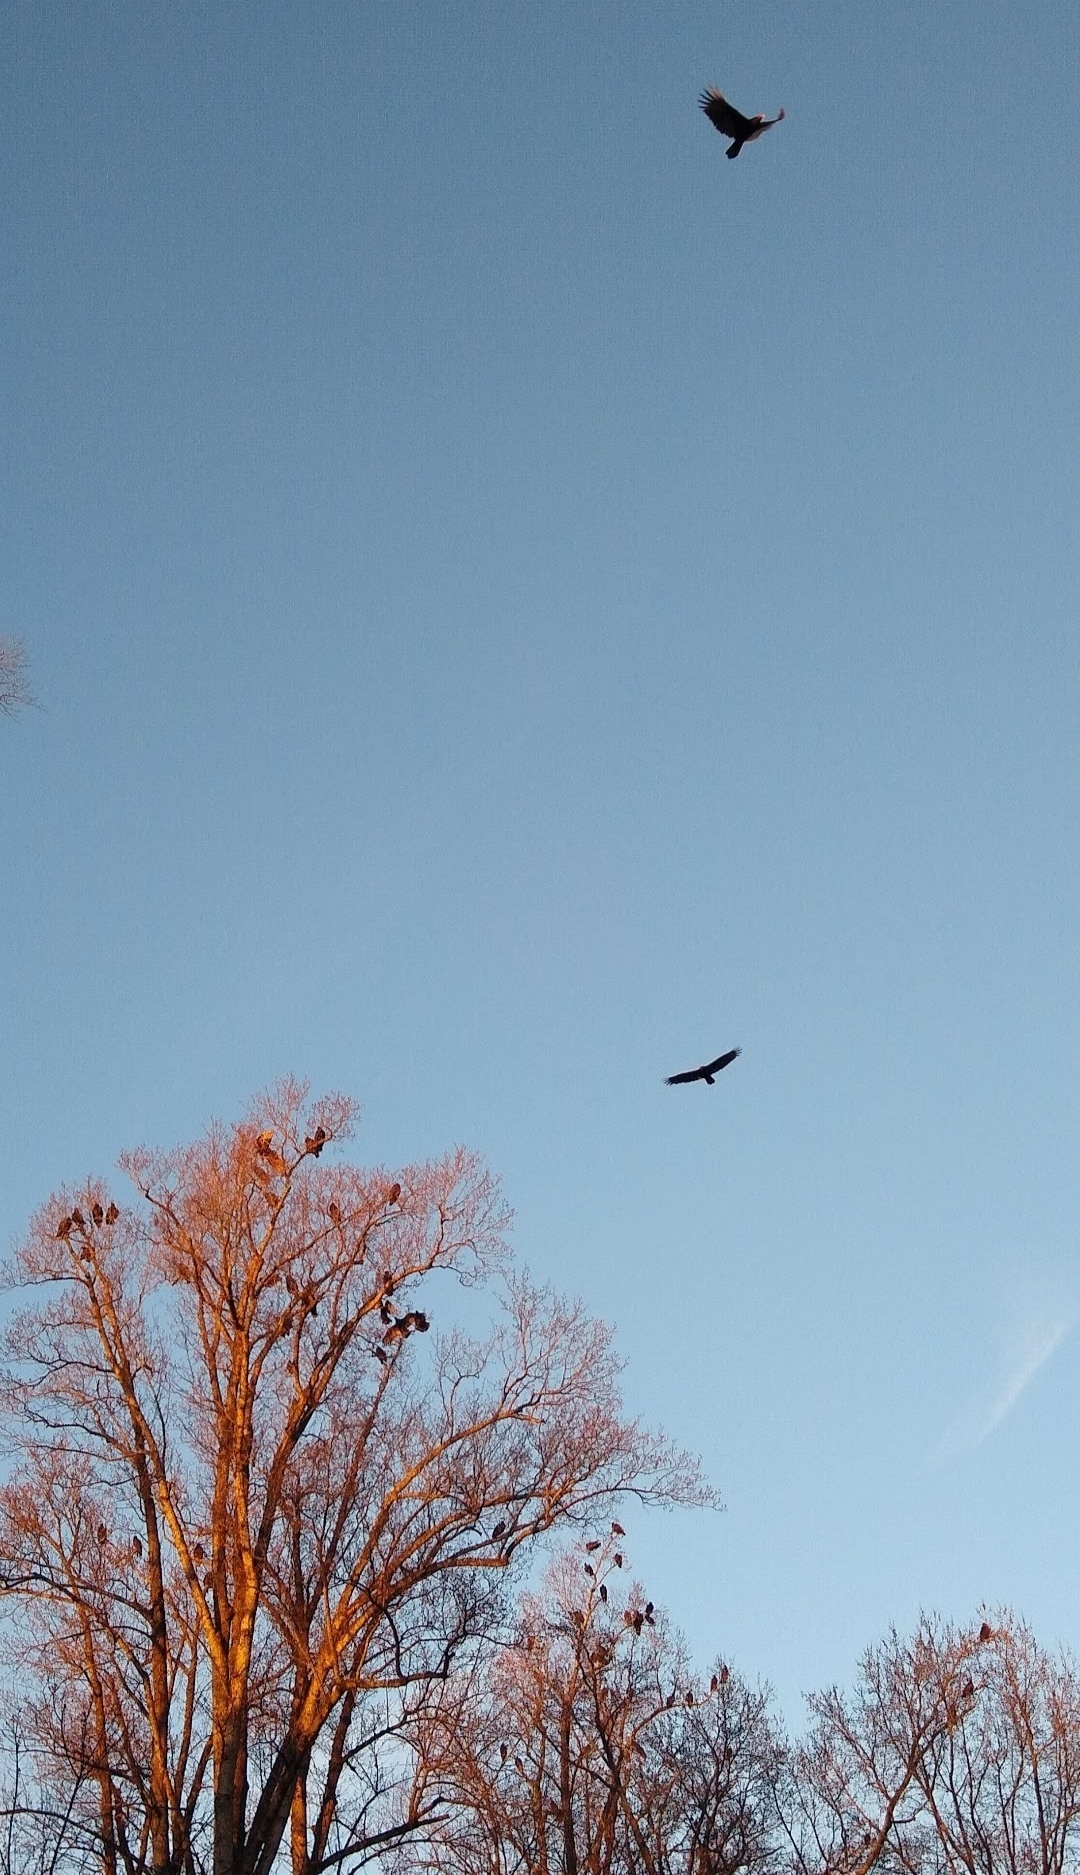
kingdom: Animalia
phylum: Chordata
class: Aves
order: Accipitriformes
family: Cathartidae
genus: Cathartes
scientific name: Cathartes aura
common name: Turkey vulture
